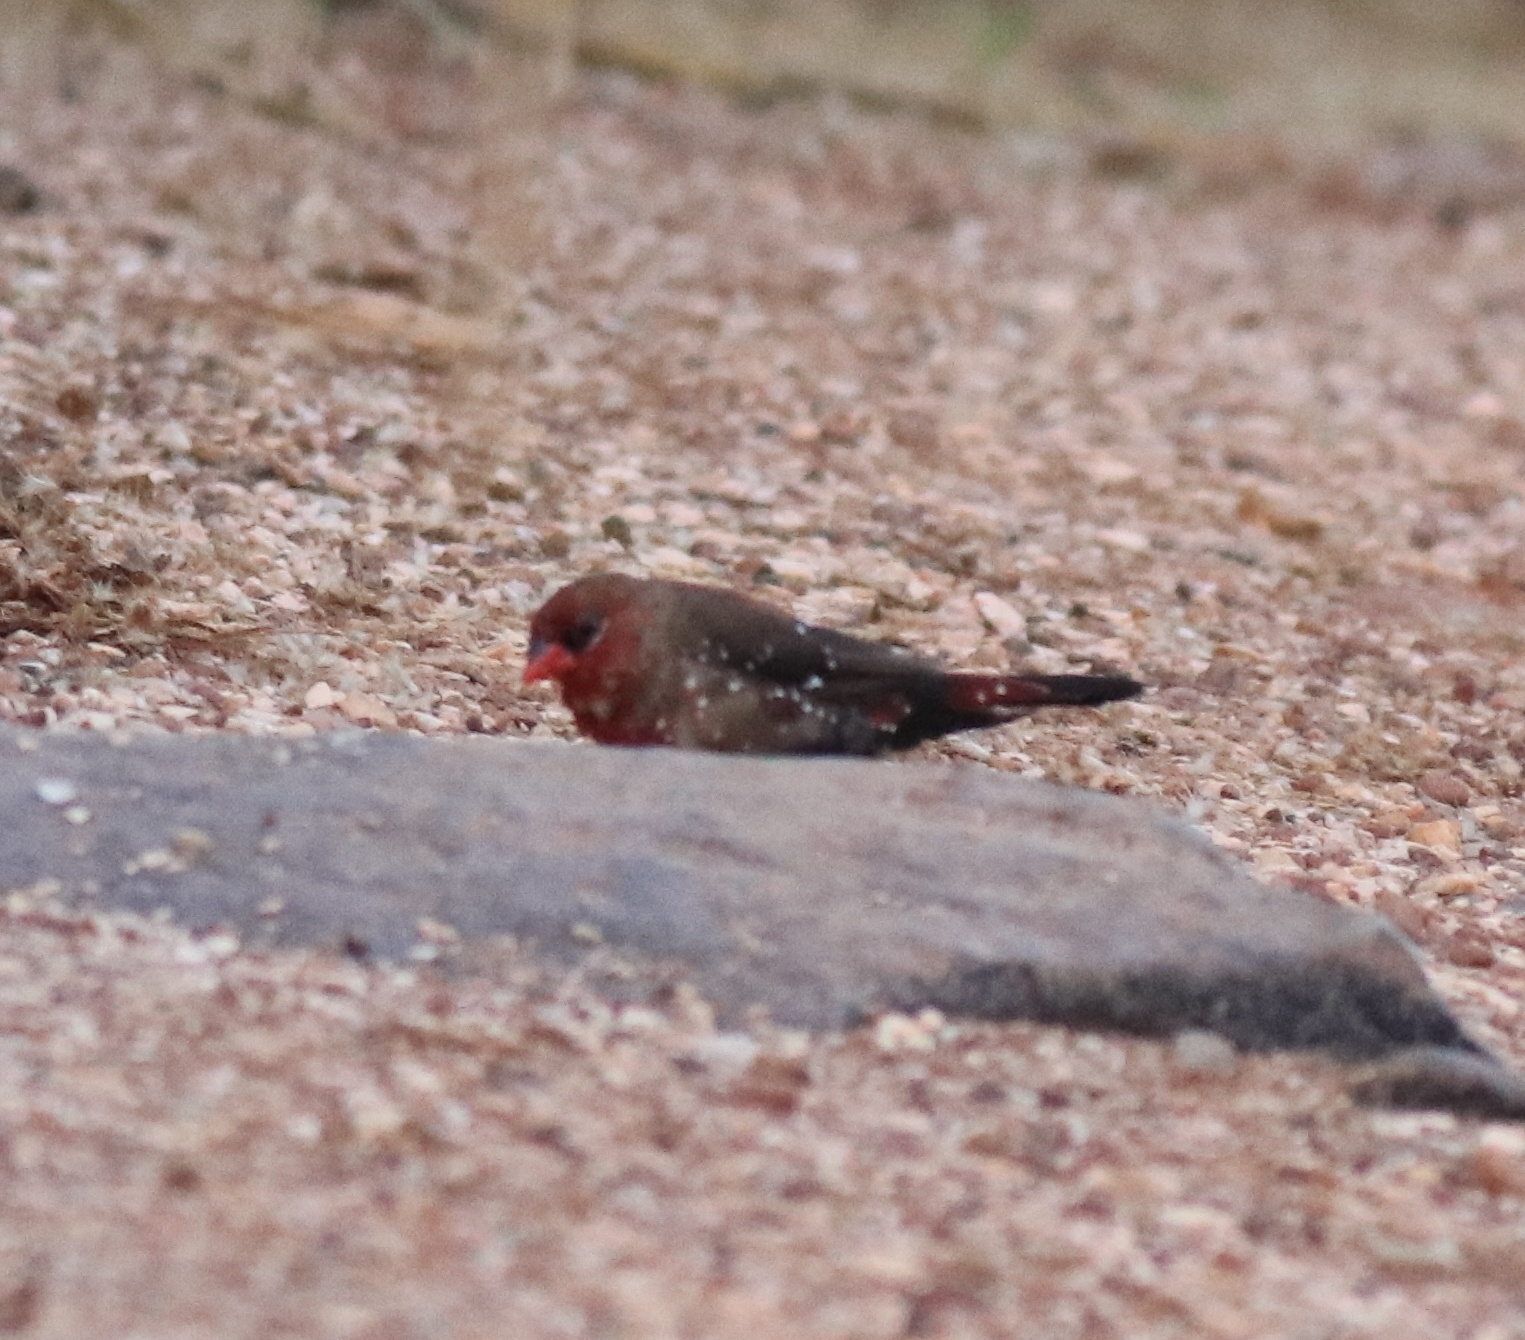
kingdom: Animalia
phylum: Chordata
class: Aves
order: Passeriformes
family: Estrildidae
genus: Amandava
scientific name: Amandava amandava
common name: Red avadavat
